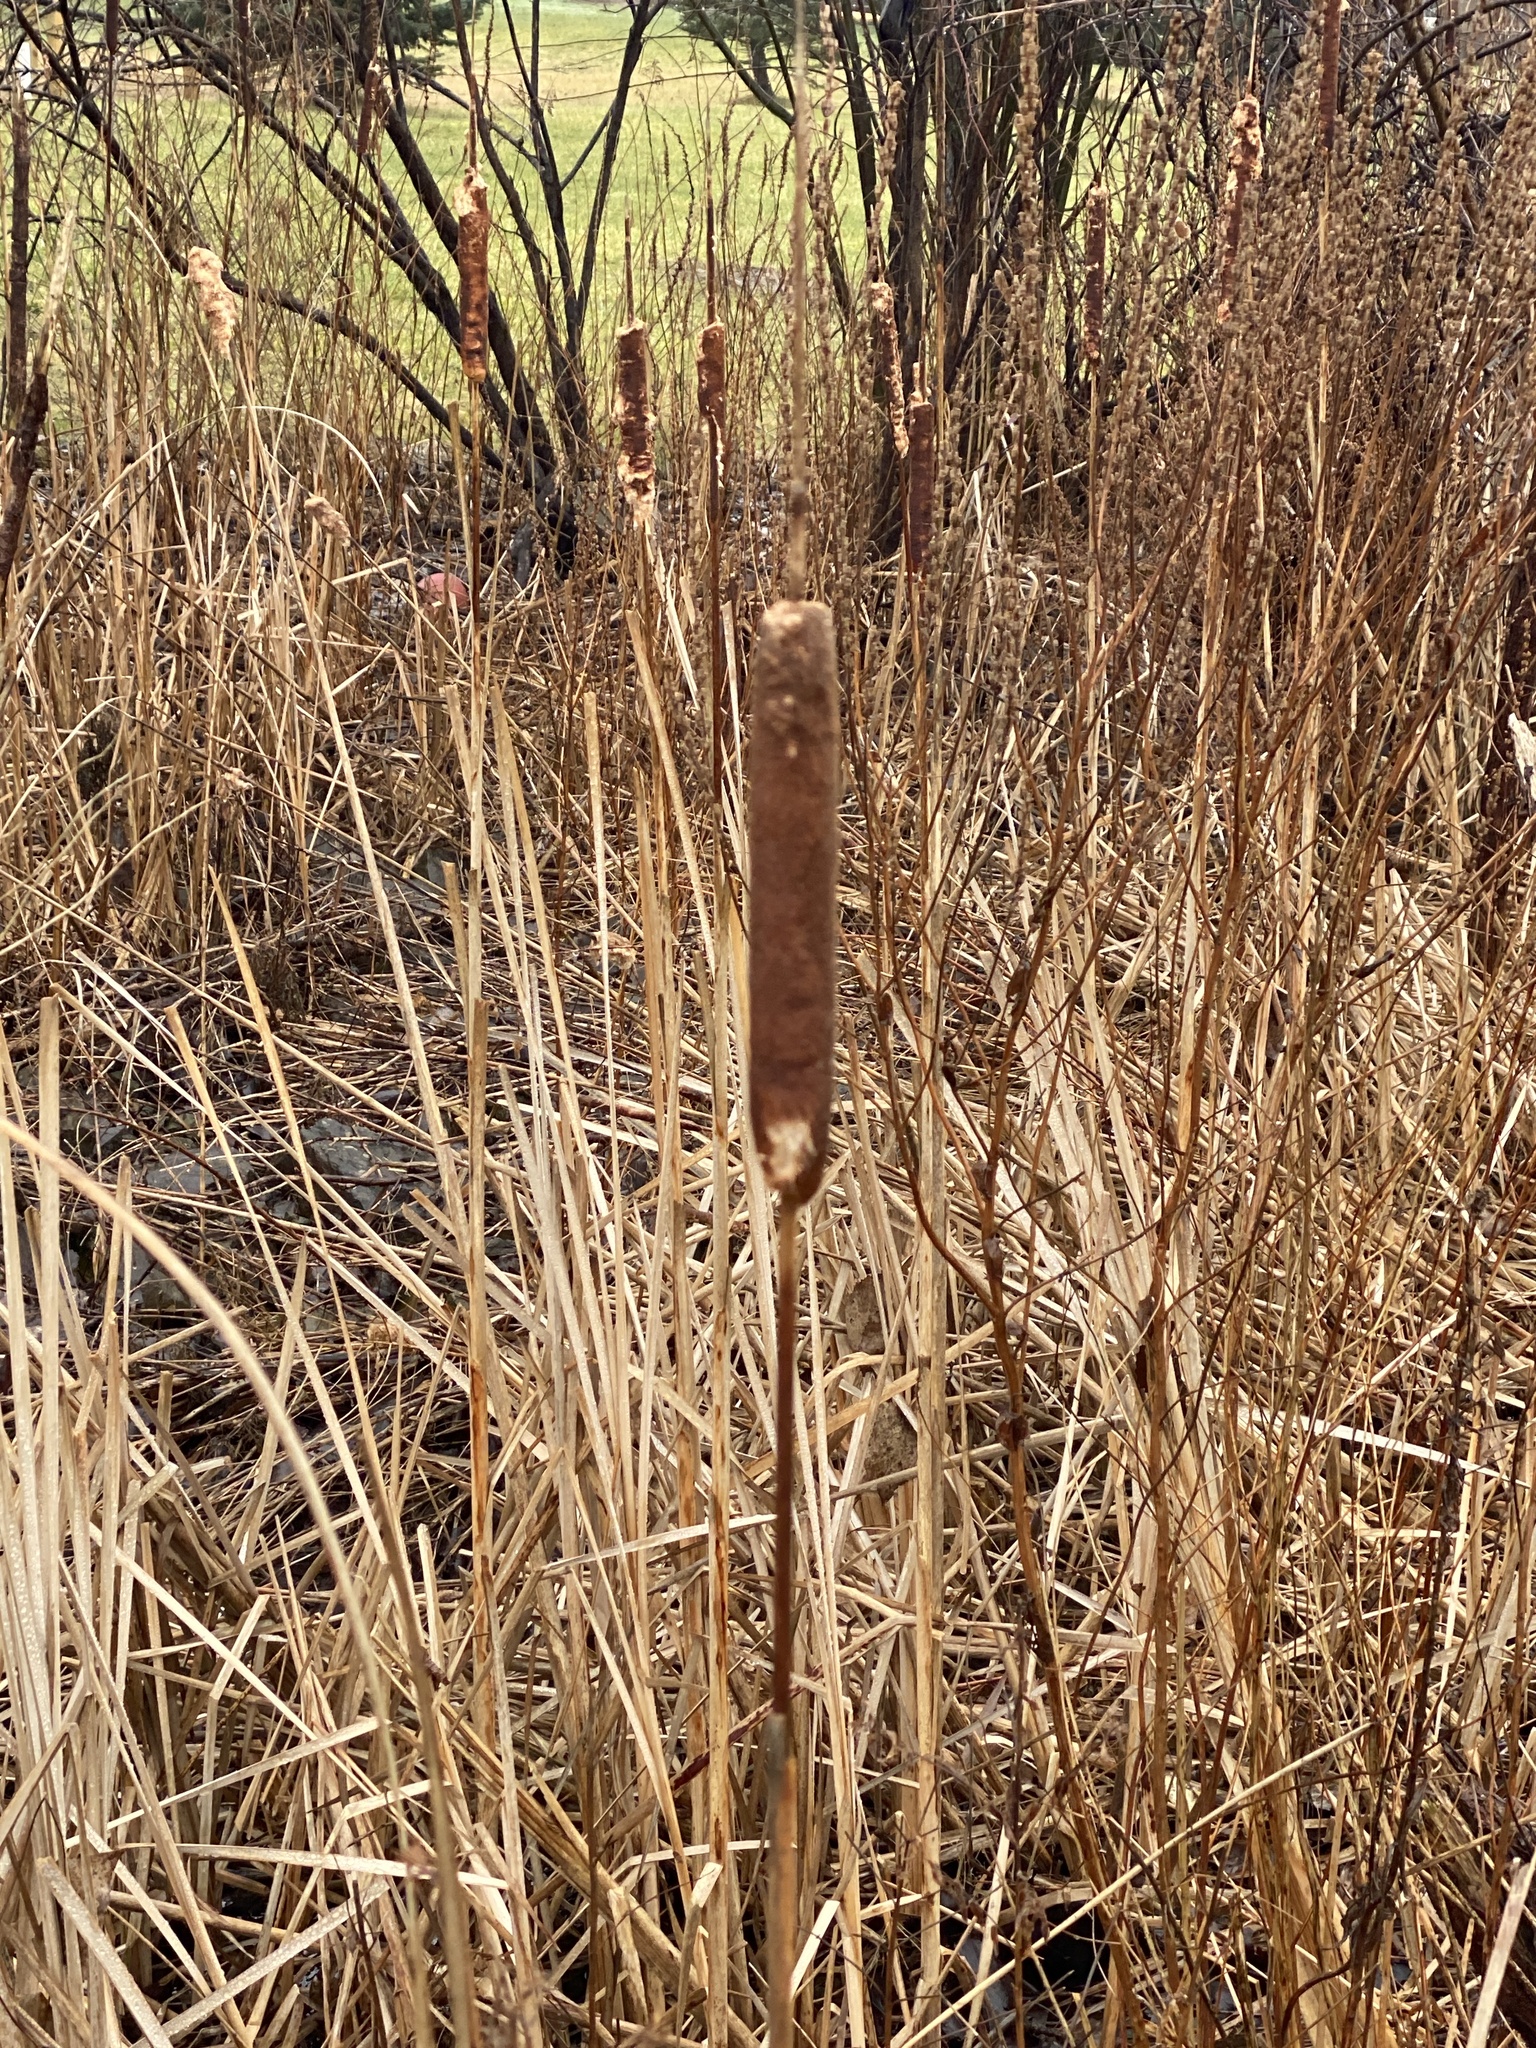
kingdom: Plantae
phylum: Tracheophyta
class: Liliopsida
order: Poales
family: Typhaceae
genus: Typha
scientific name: Typha latifolia
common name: Broadleaf cattail
